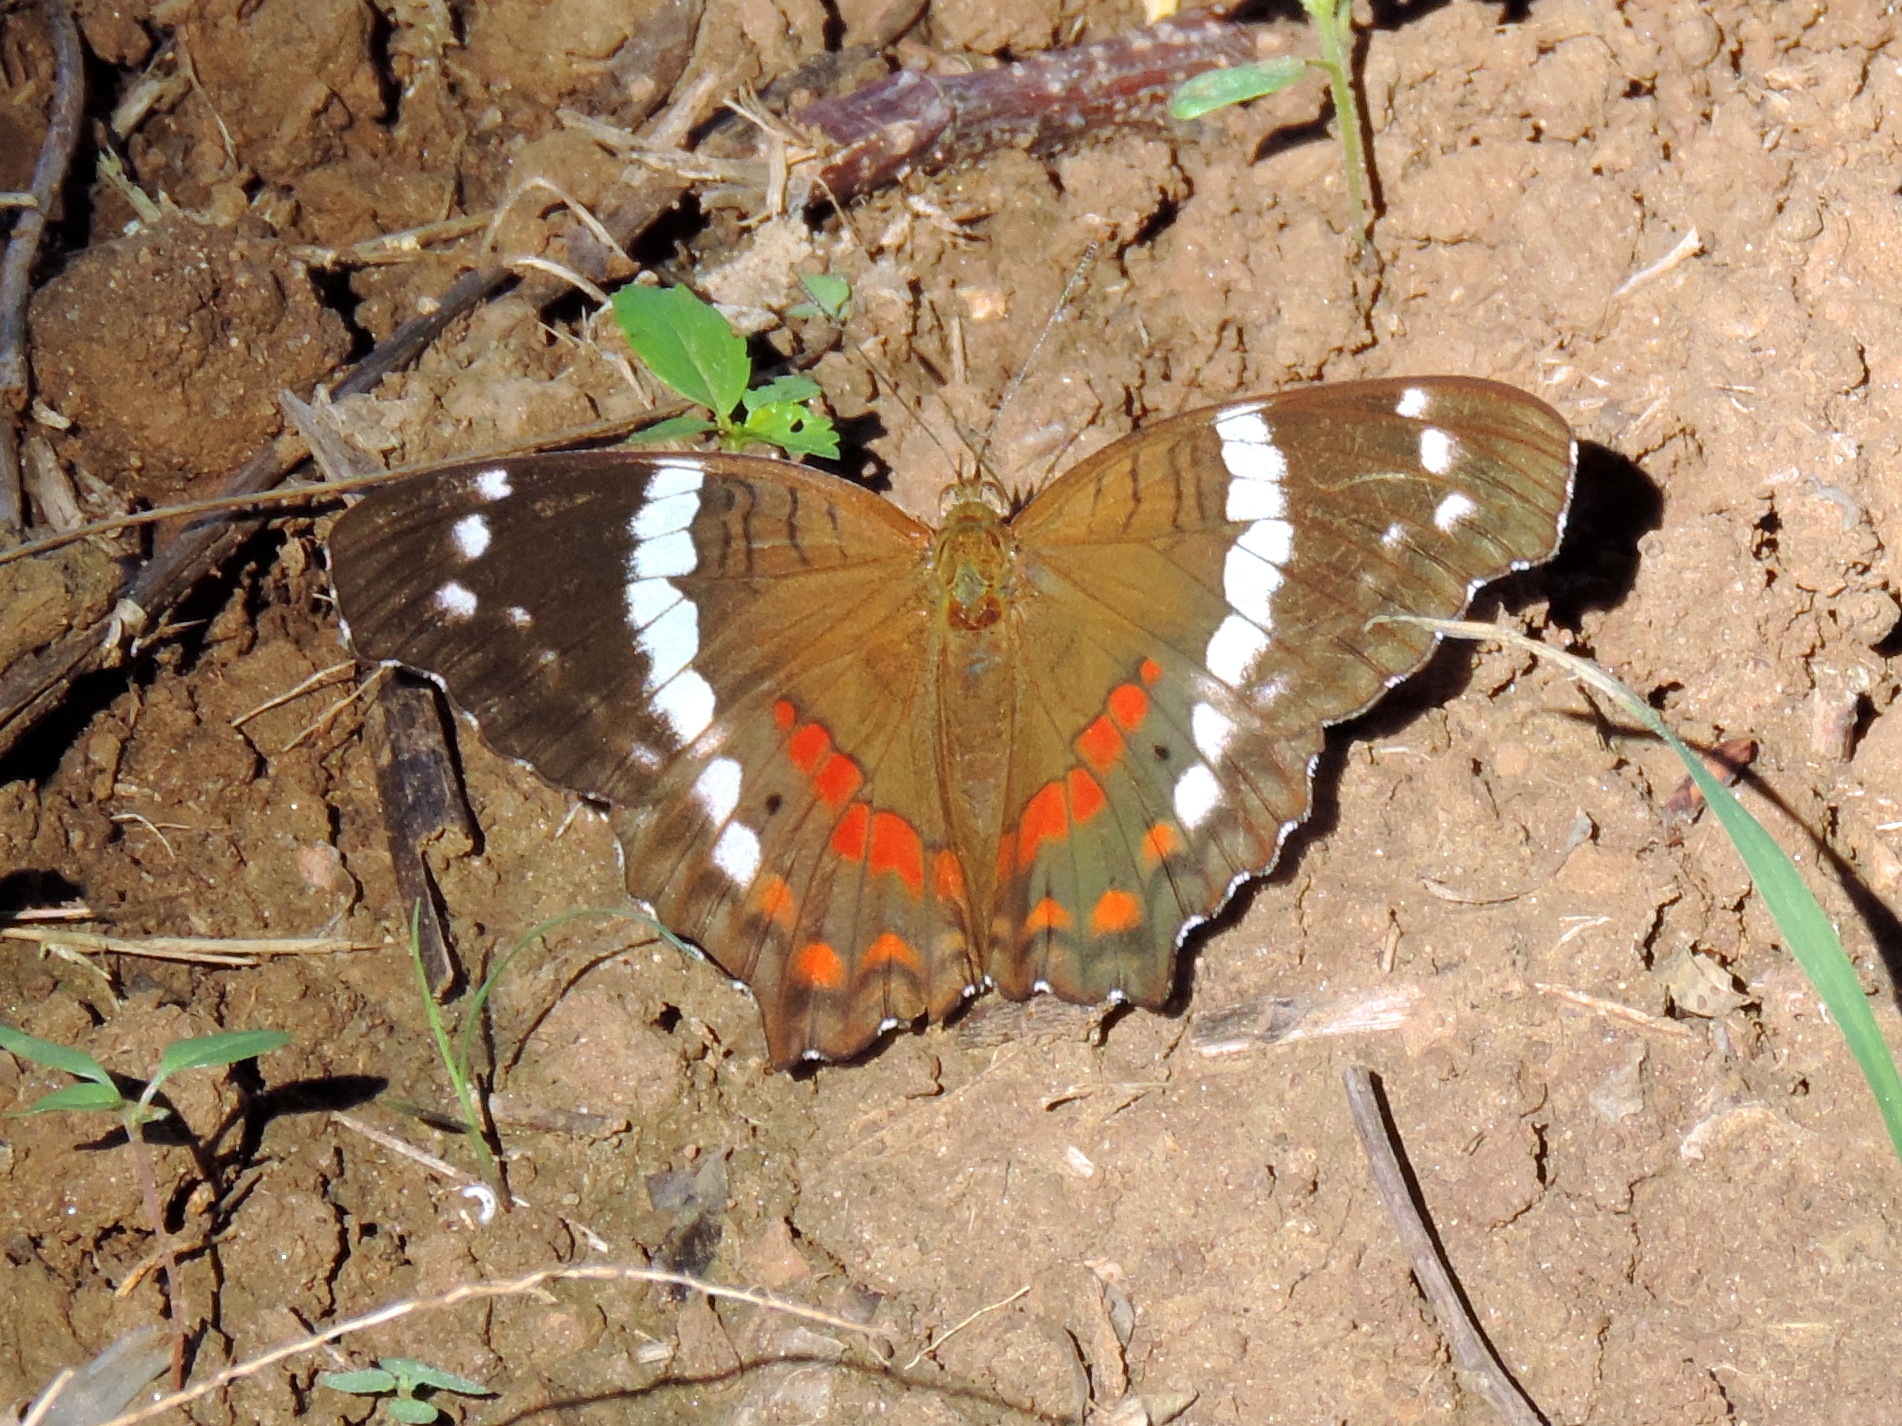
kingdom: Animalia
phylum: Arthropoda
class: Insecta
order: Lepidoptera
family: Nymphalidae
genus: Anartia
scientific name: Anartia fatima
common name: Banded peacock
